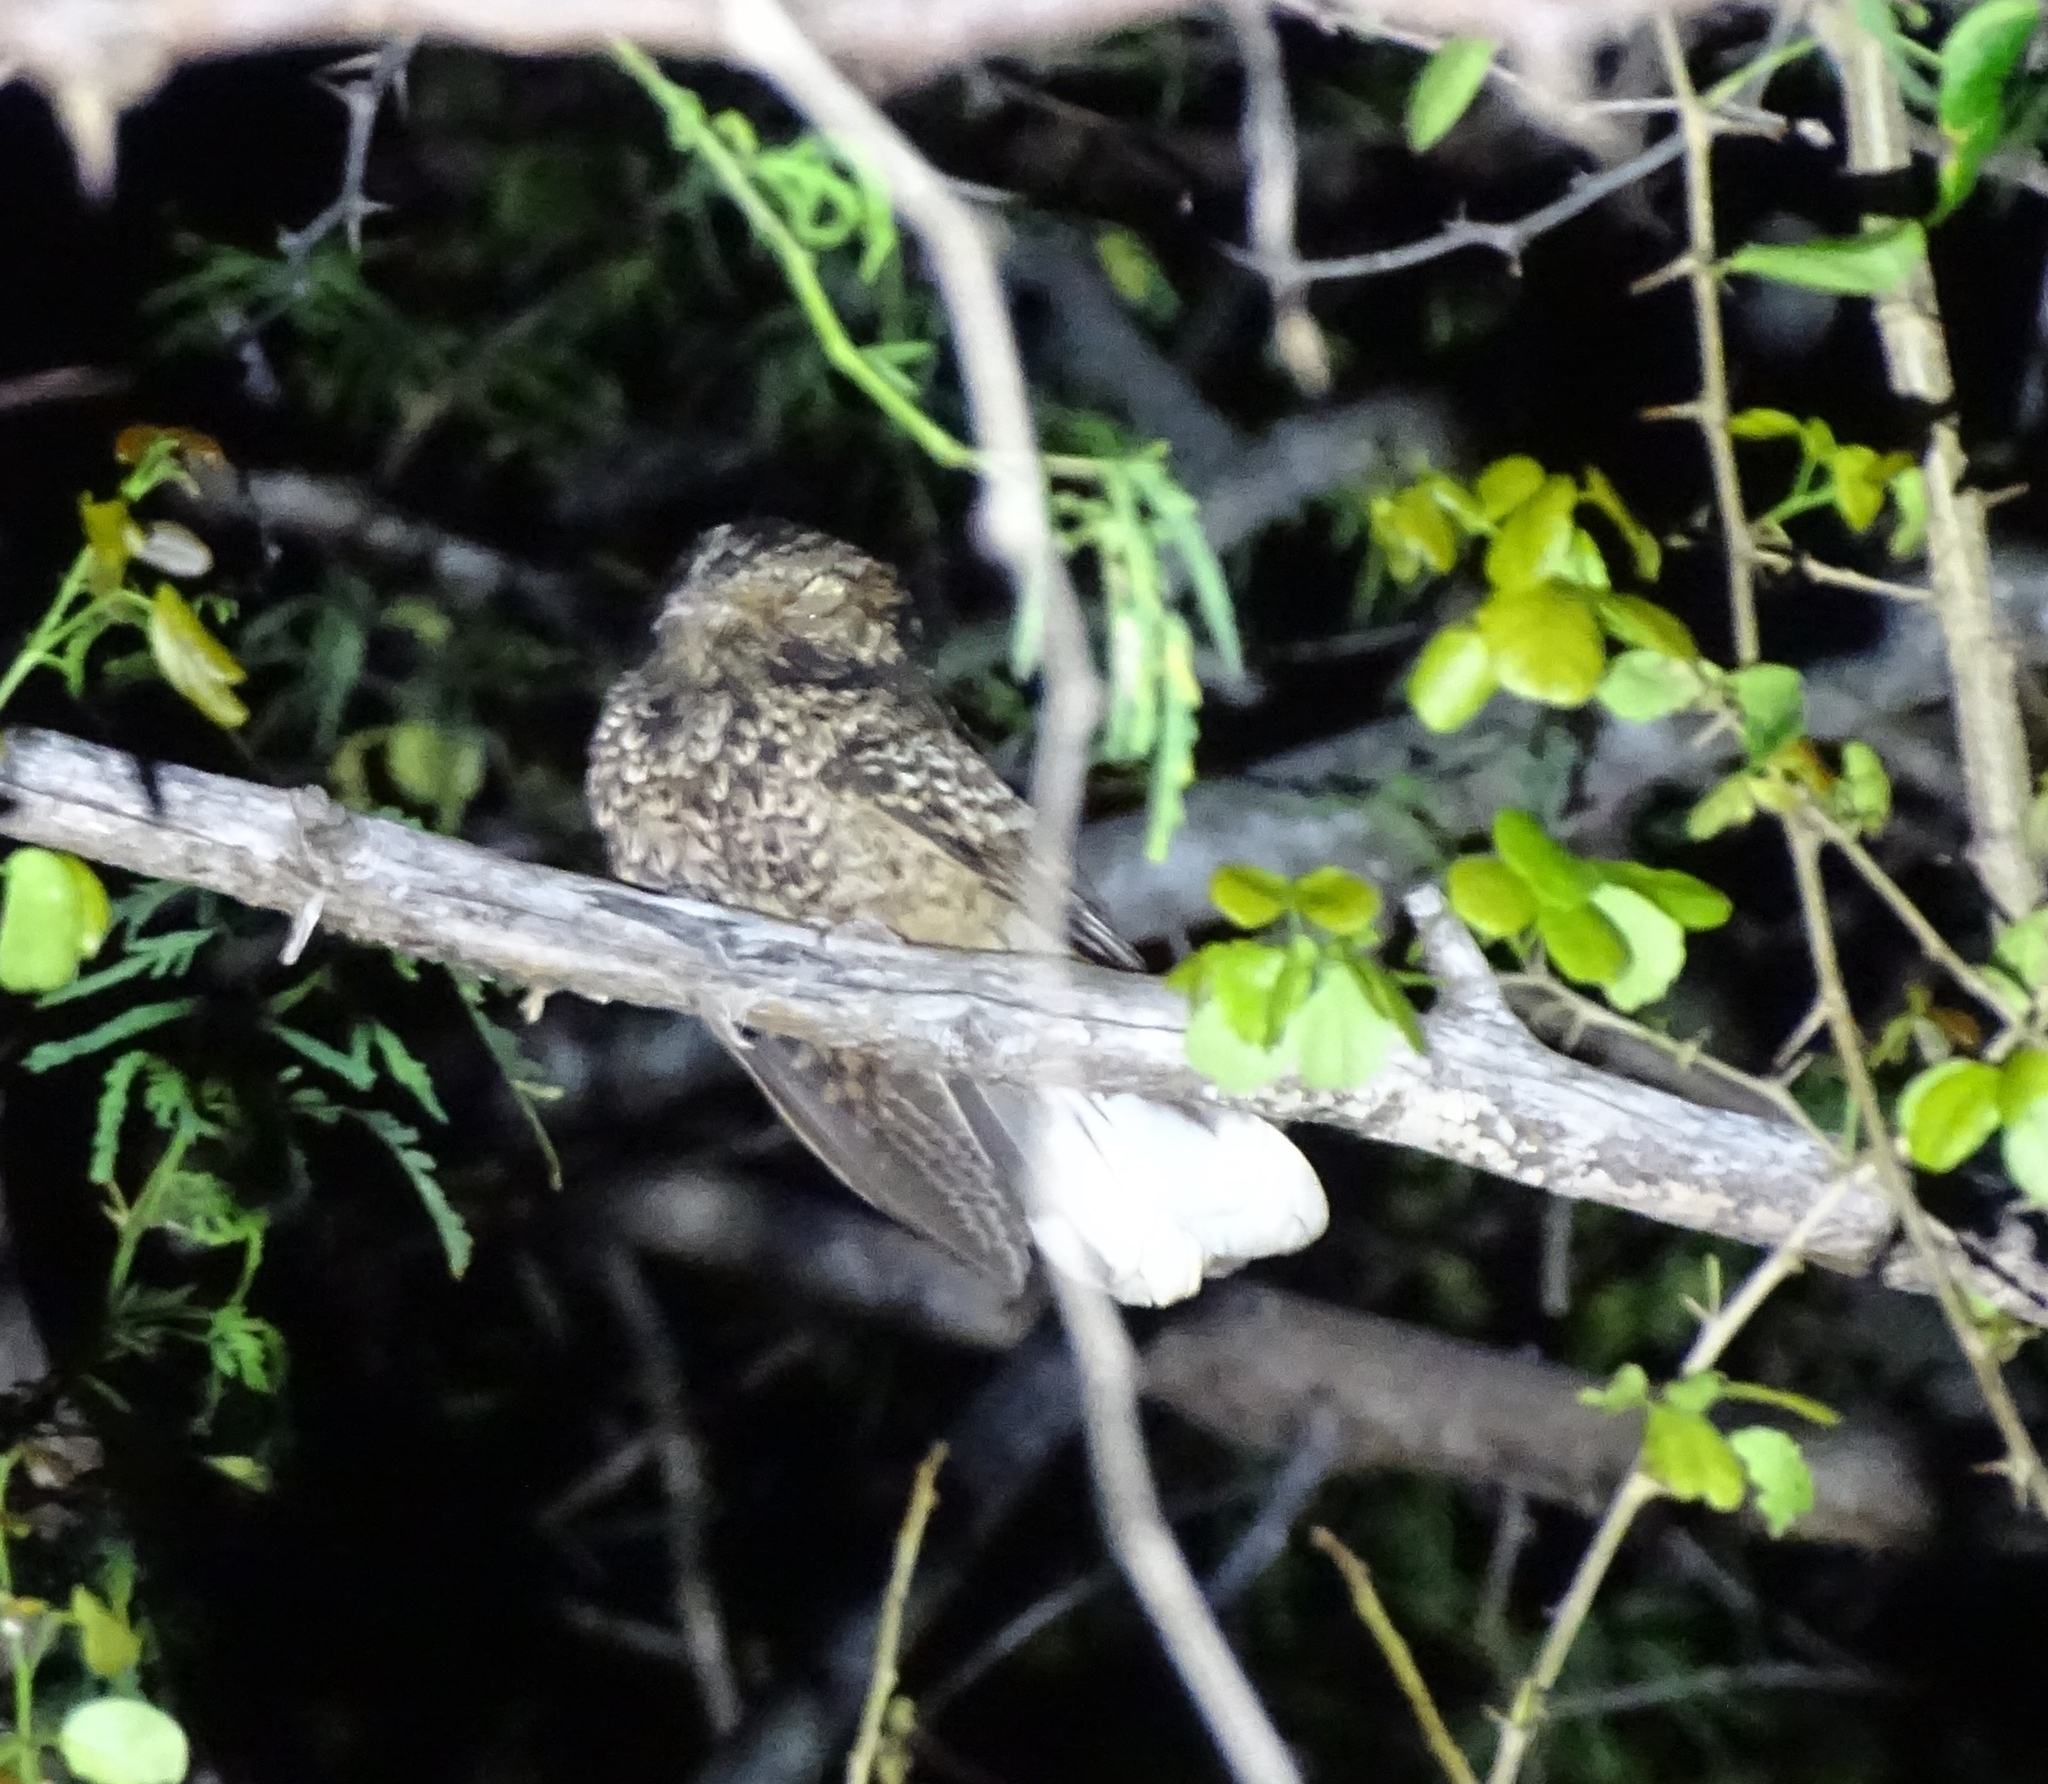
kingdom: Animalia
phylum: Chordata
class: Aves
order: Caprimulgiformes
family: Caprimulgidae
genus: Antrostomus
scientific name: Antrostomus noctitherus
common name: Puerto rican nightjar
